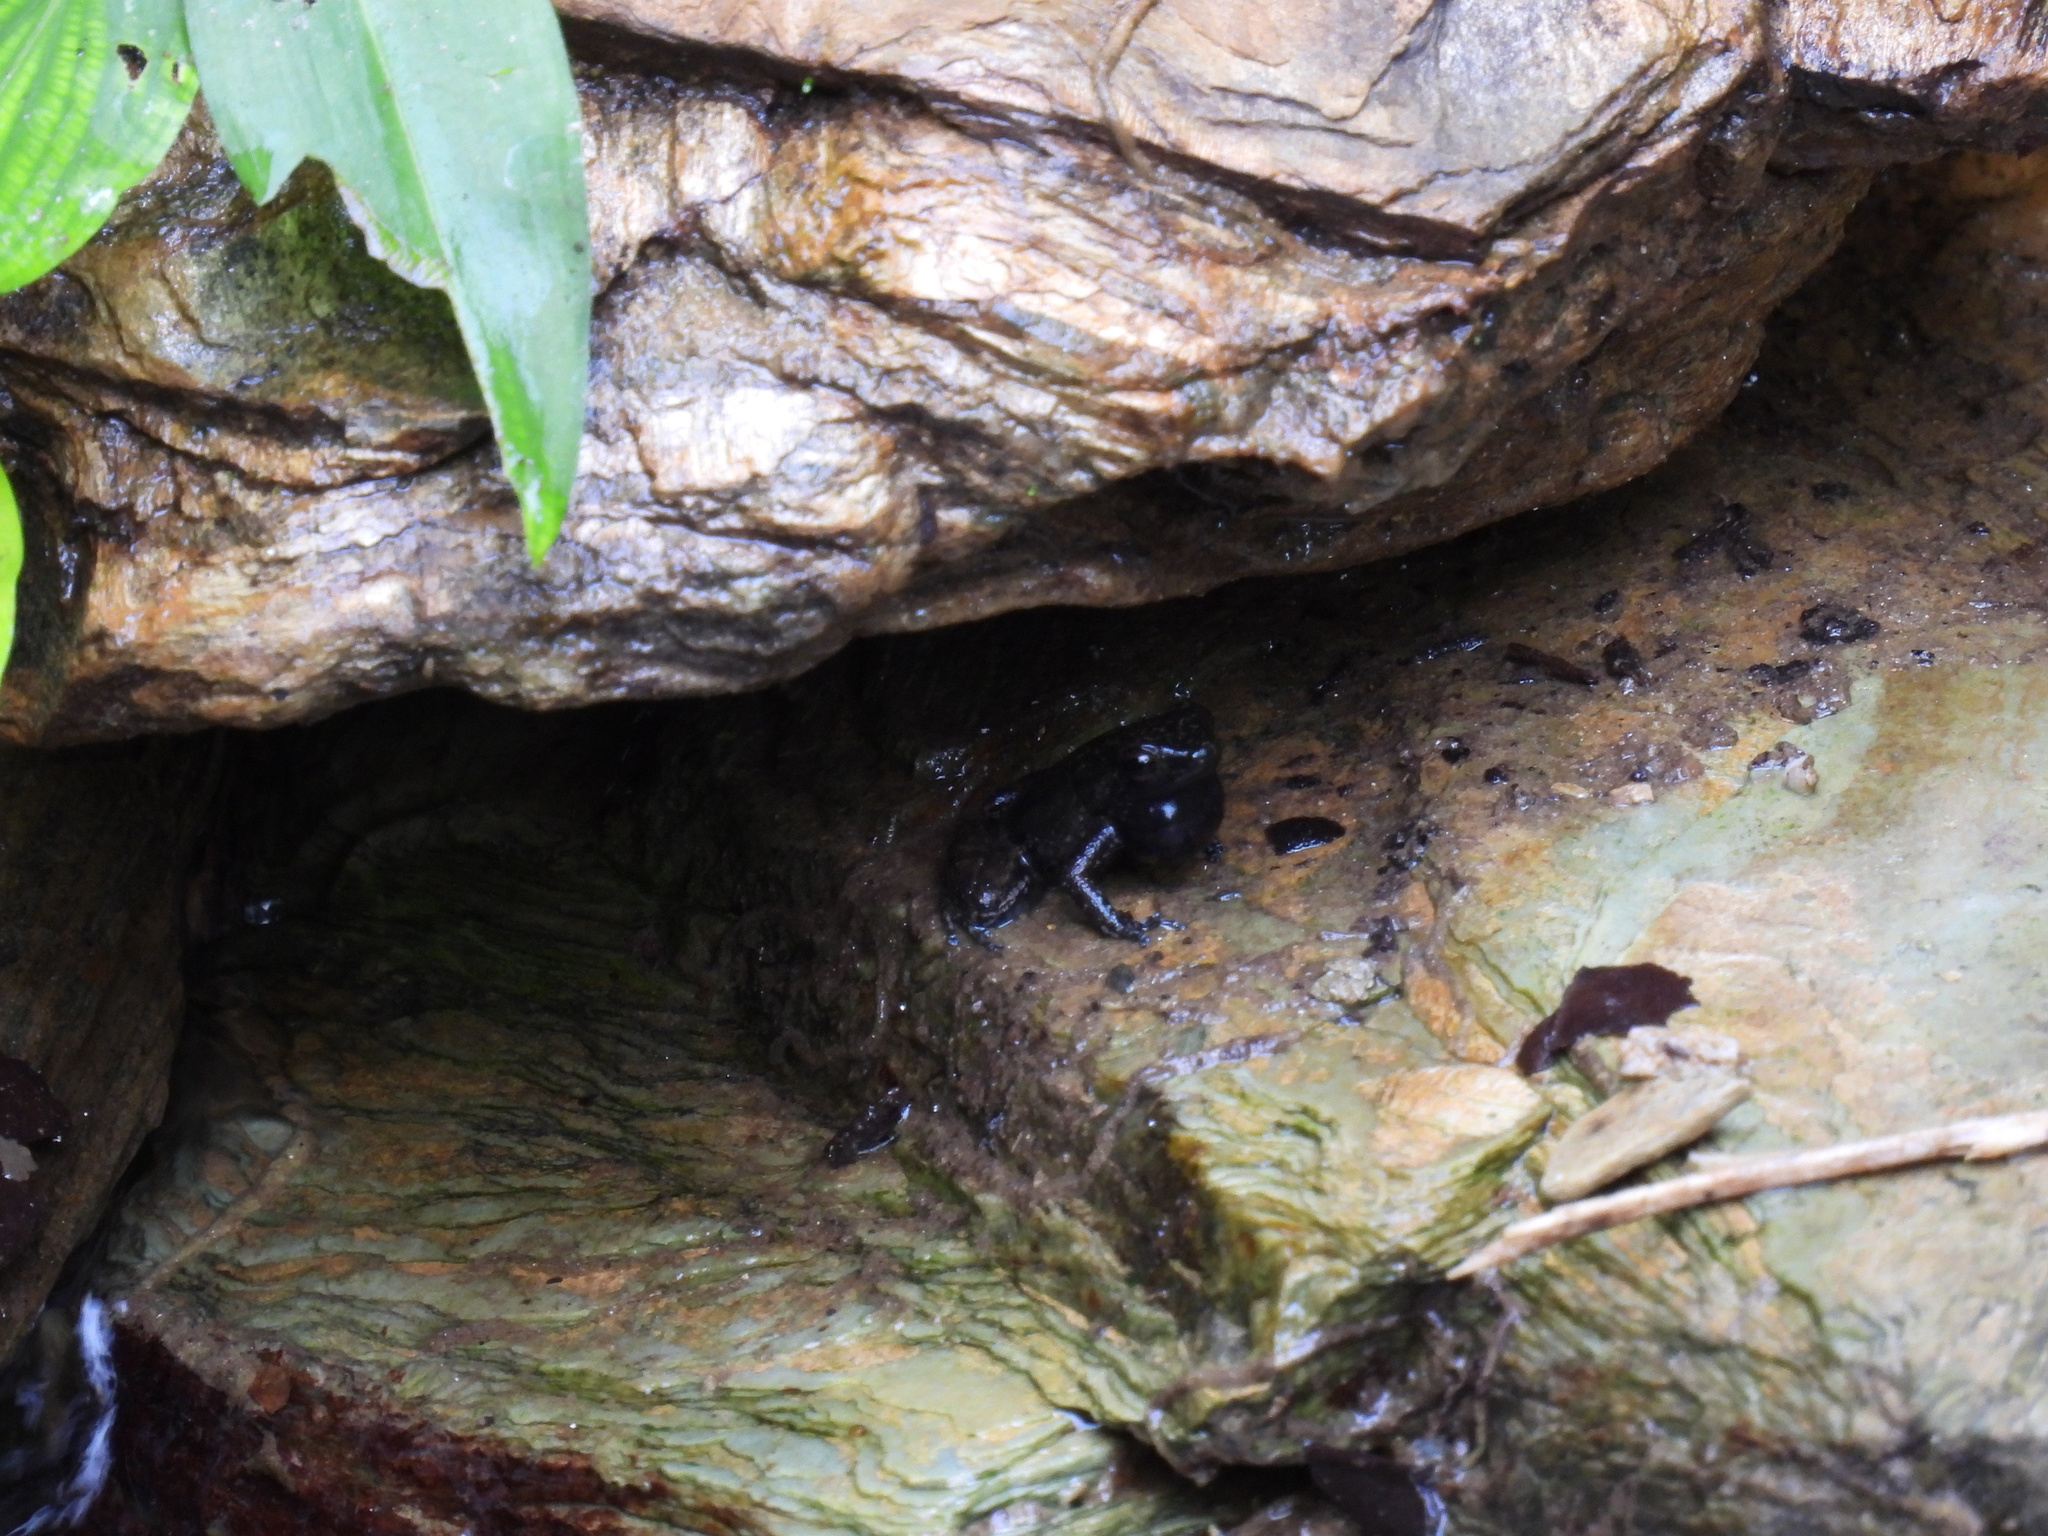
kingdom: Animalia
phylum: Chordata
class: Amphibia
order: Anura
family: Aromobatidae
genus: Mannophryne
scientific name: Mannophryne trinitatis
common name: Trinidad poison frog
